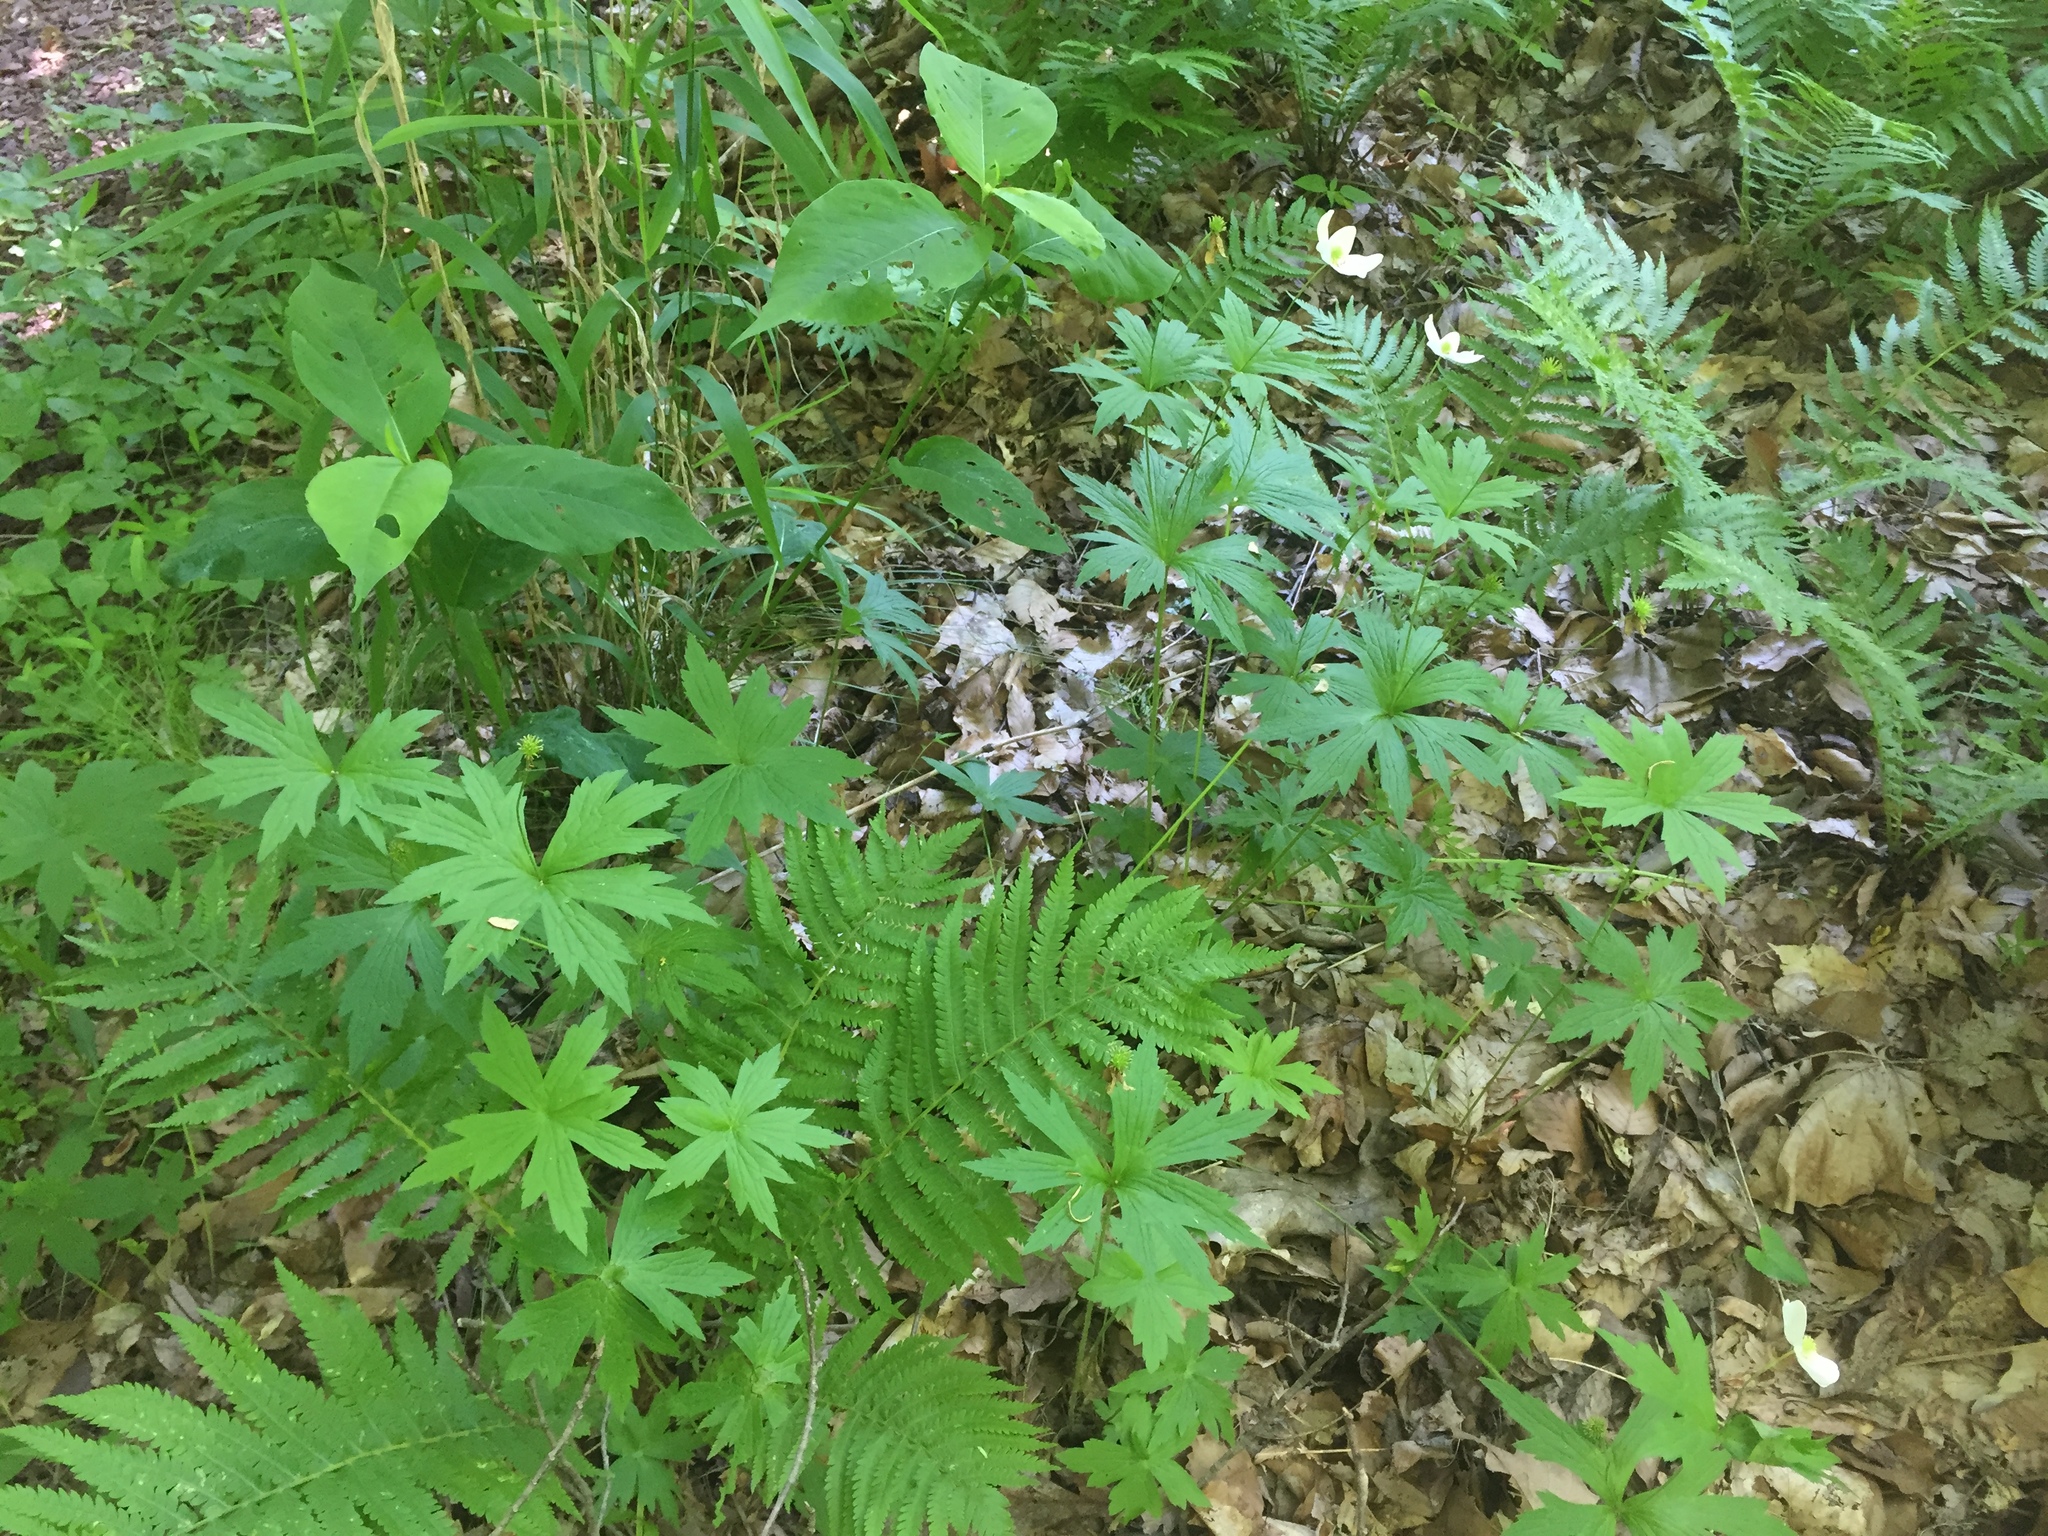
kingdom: Plantae
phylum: Tracheophyta
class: Polypodiopsida
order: Polypodiales
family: Onocleaceae
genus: Matteuccia
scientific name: Matteuccia struthiopteris
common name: Ostrich fern
